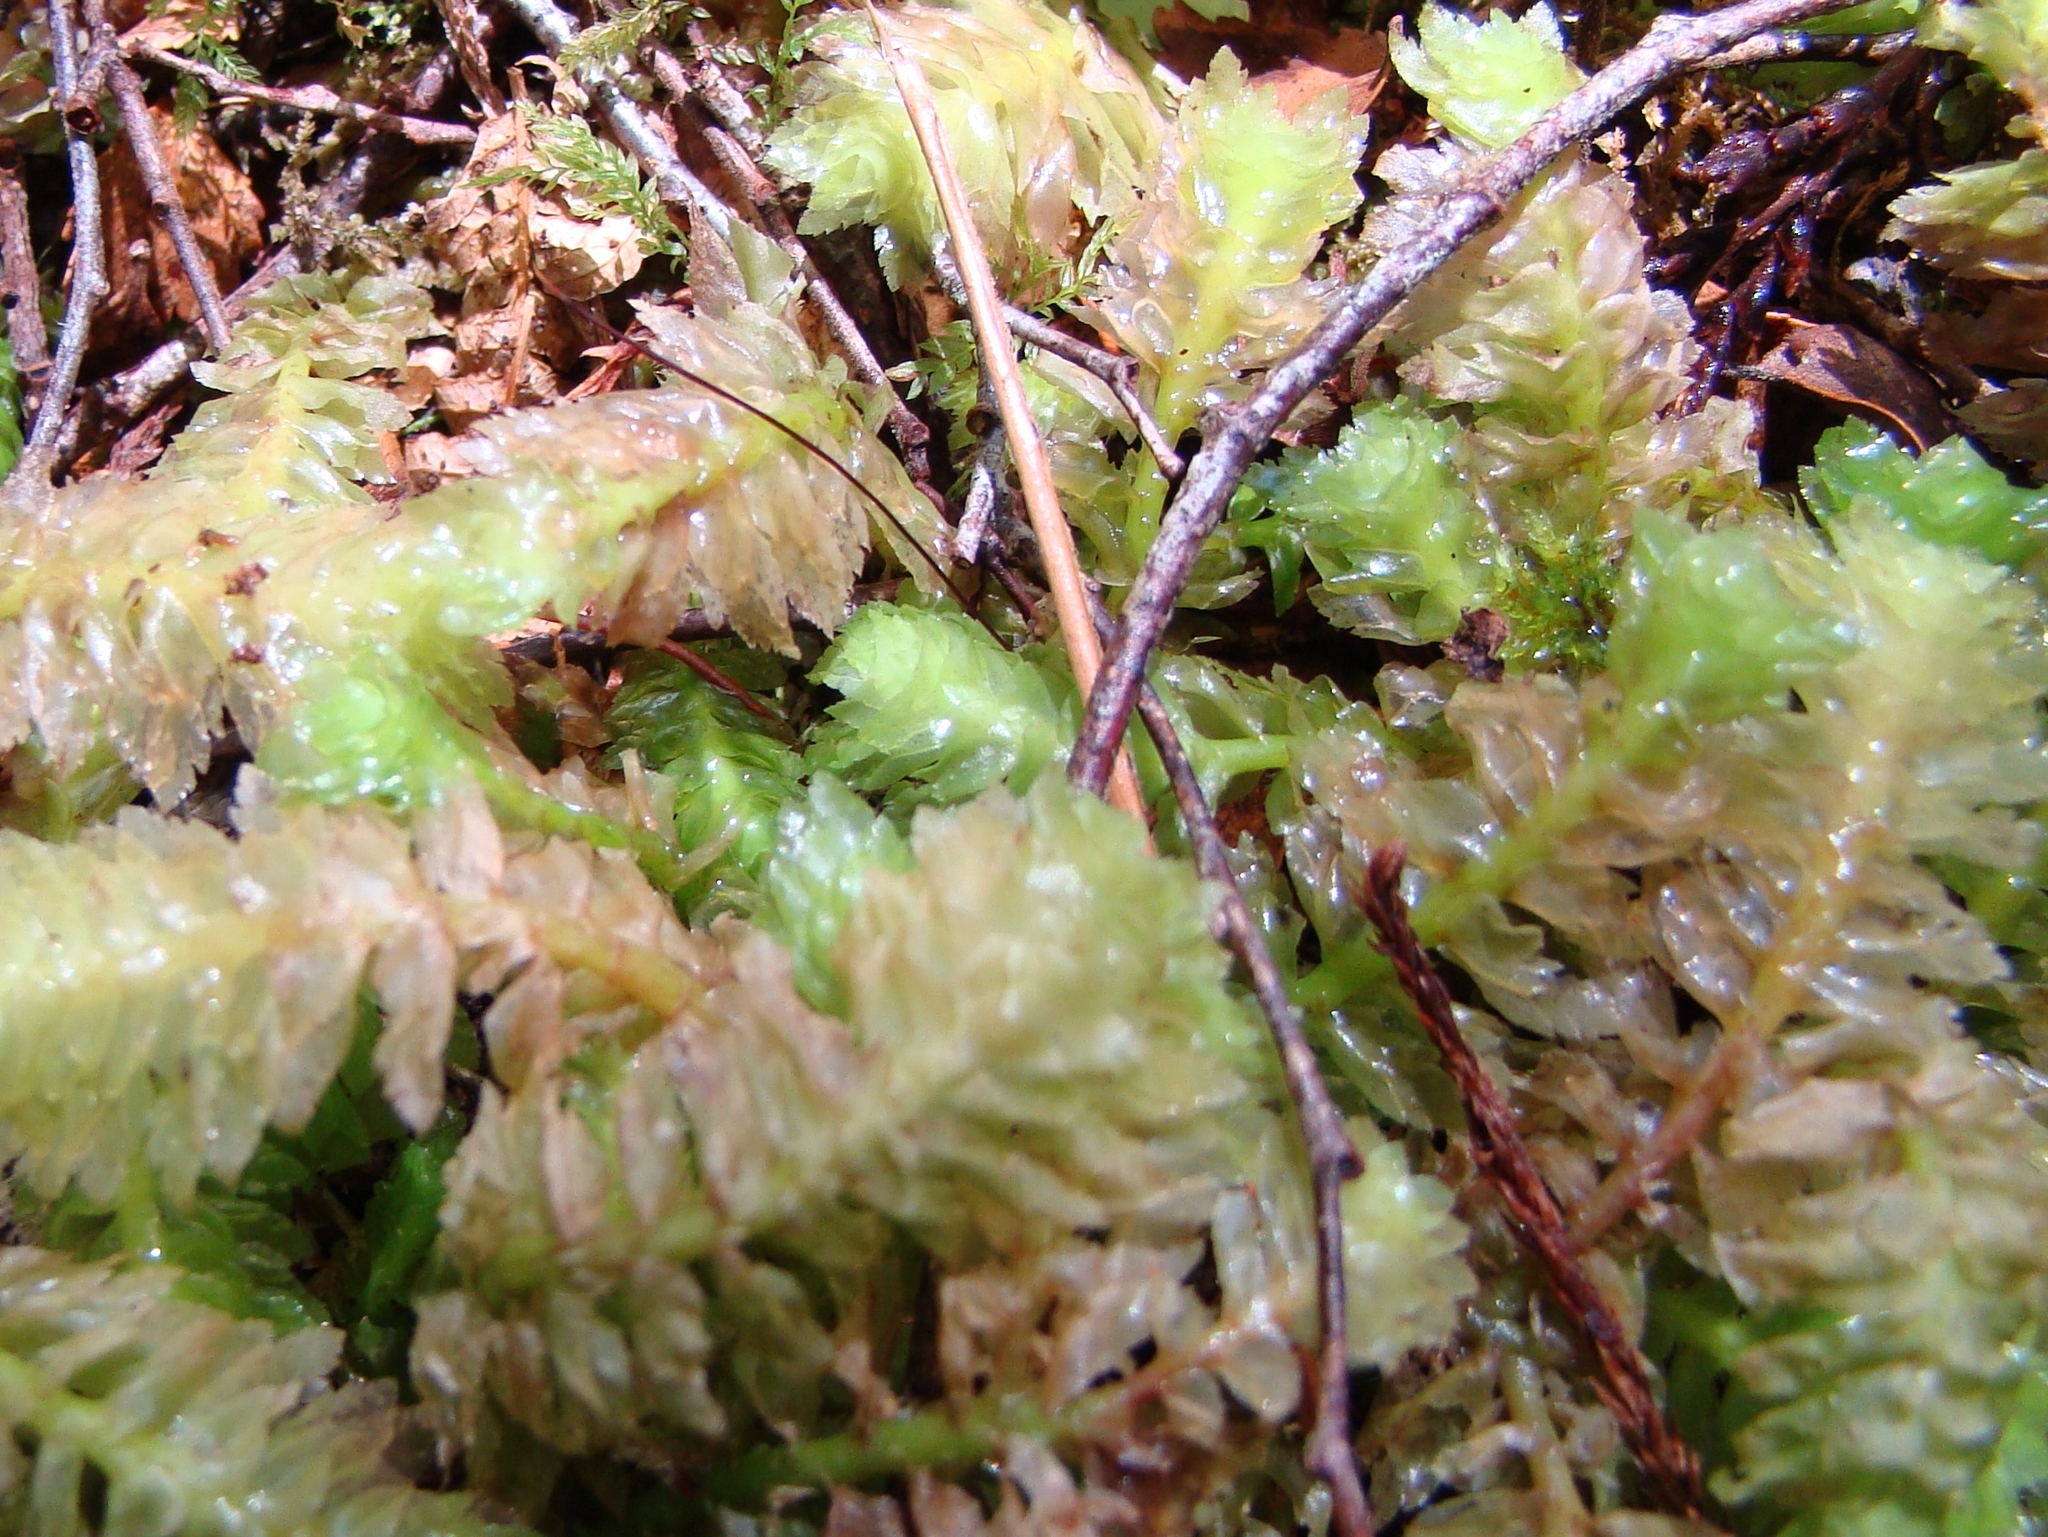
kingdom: Plantae
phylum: Marchantiophyta
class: Jungermanniopsida
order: Jungermanniales
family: Schistochilaceae
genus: Schistochila
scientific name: Schistochila
